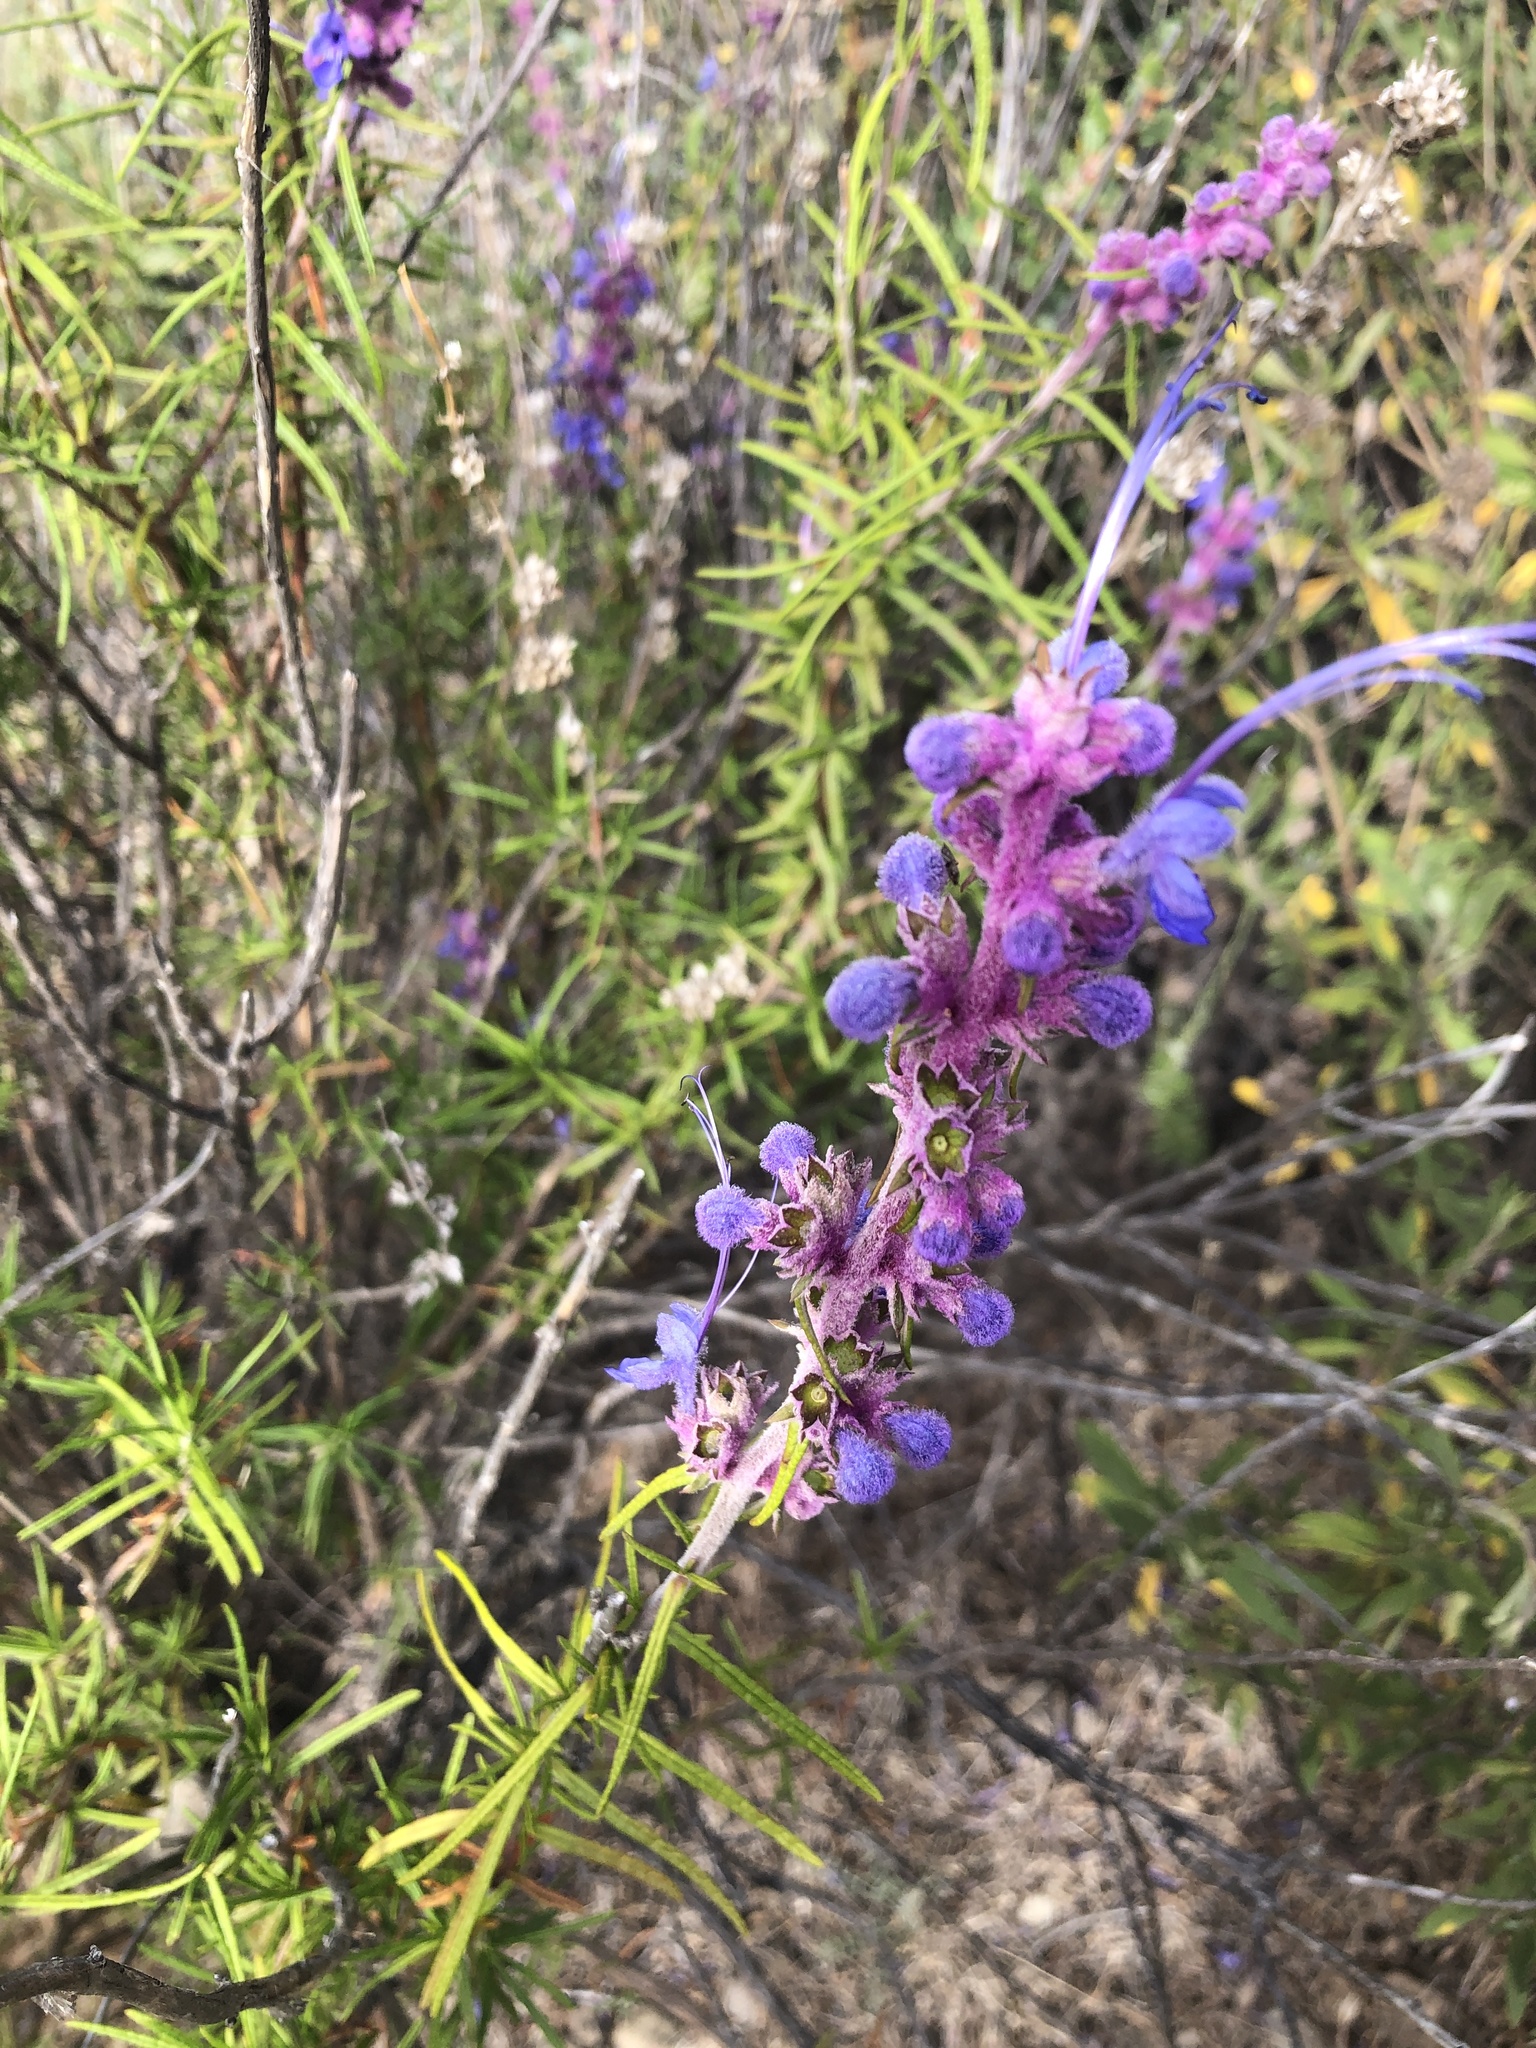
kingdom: Plantae
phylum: Tracheophyta
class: Magnoliopsida
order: Lamiales
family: Lamiaceae
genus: Trichostema
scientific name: Trichostema lanatum
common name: Woolly bluecurls
